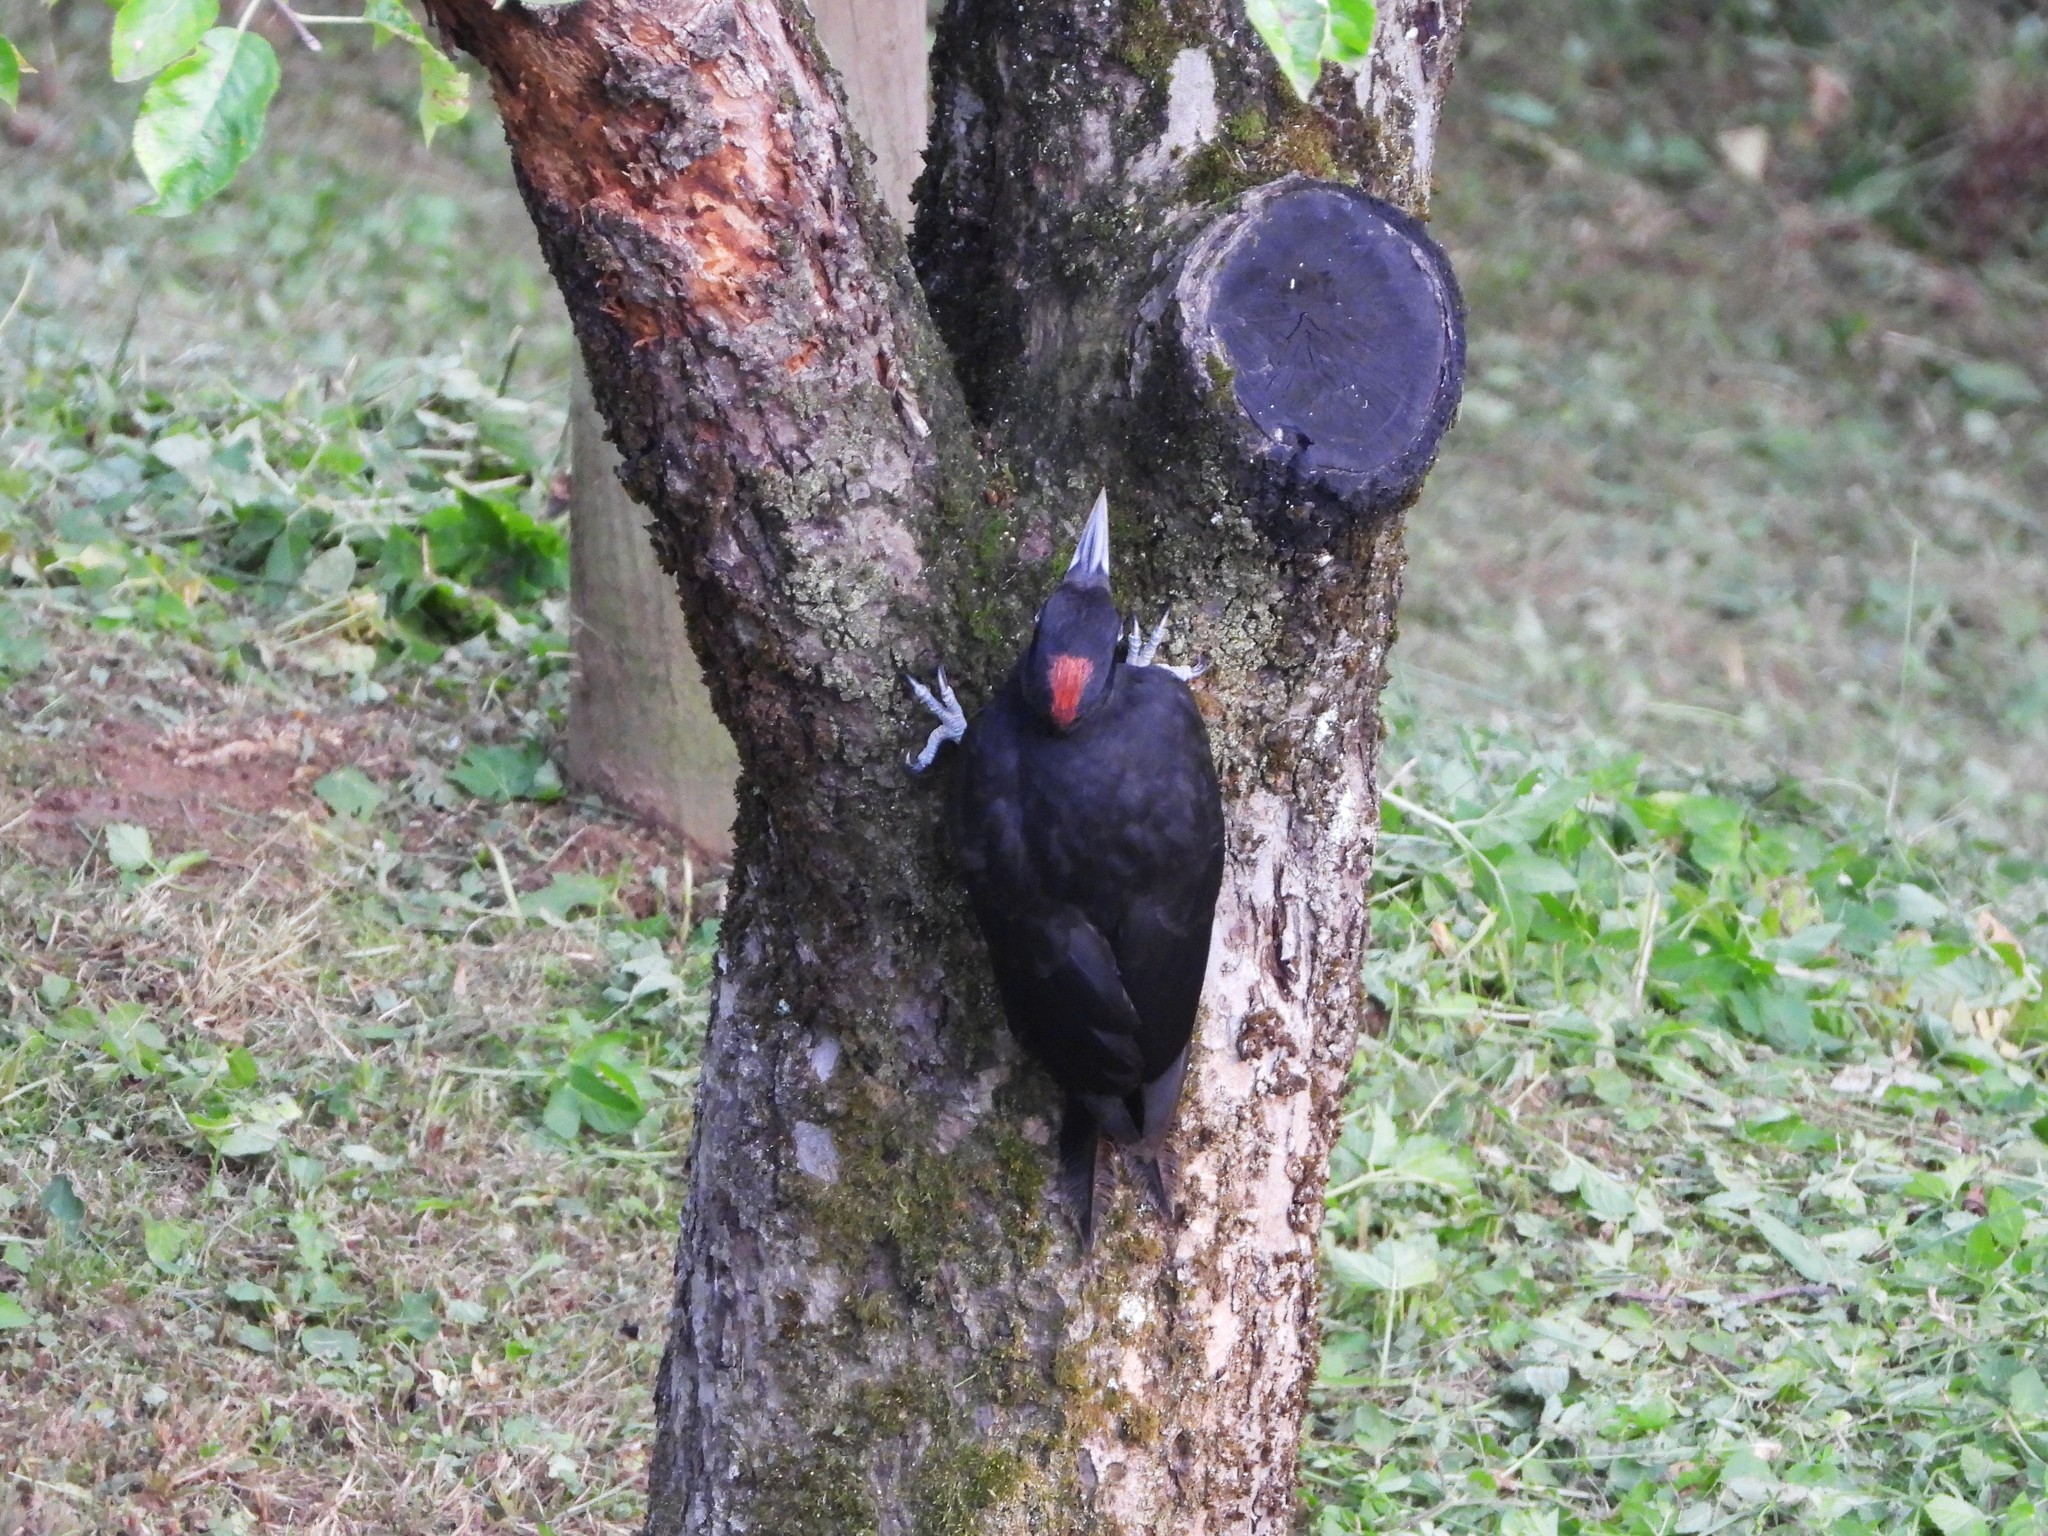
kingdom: Animalia
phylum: Chordata
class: Aves
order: Piciformes
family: Picidae
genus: Dryocopus
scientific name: Dryocopus martius
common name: Black woodpecker
